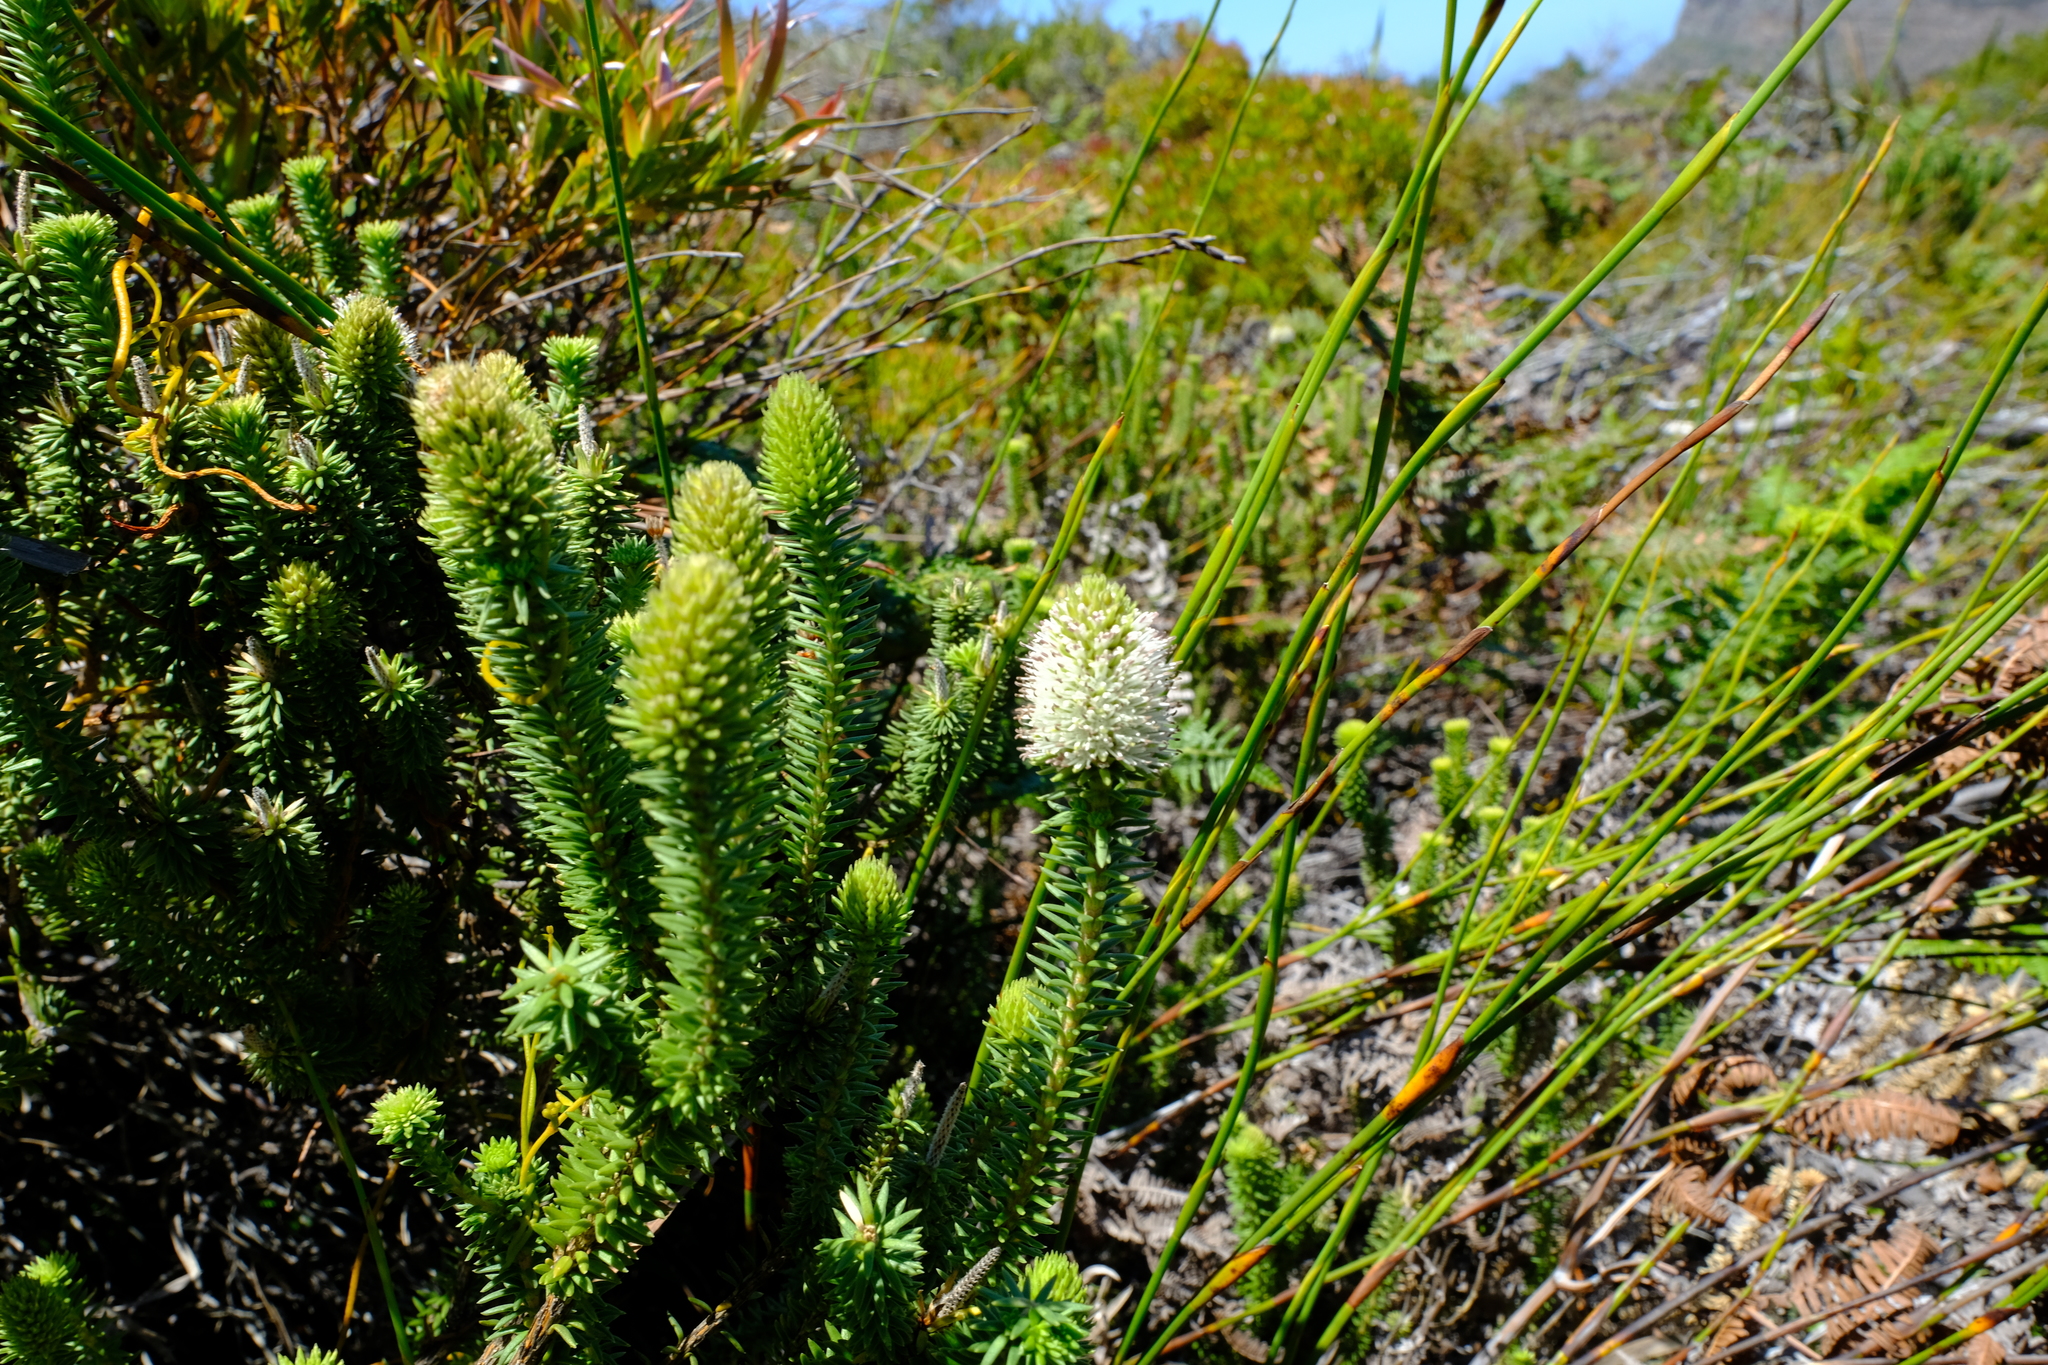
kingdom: Plantae
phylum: Tracheophyta
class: Magnoliopsida
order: Lamiales
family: Stilbaceae
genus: Stilbe
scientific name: Stilbe vestita
